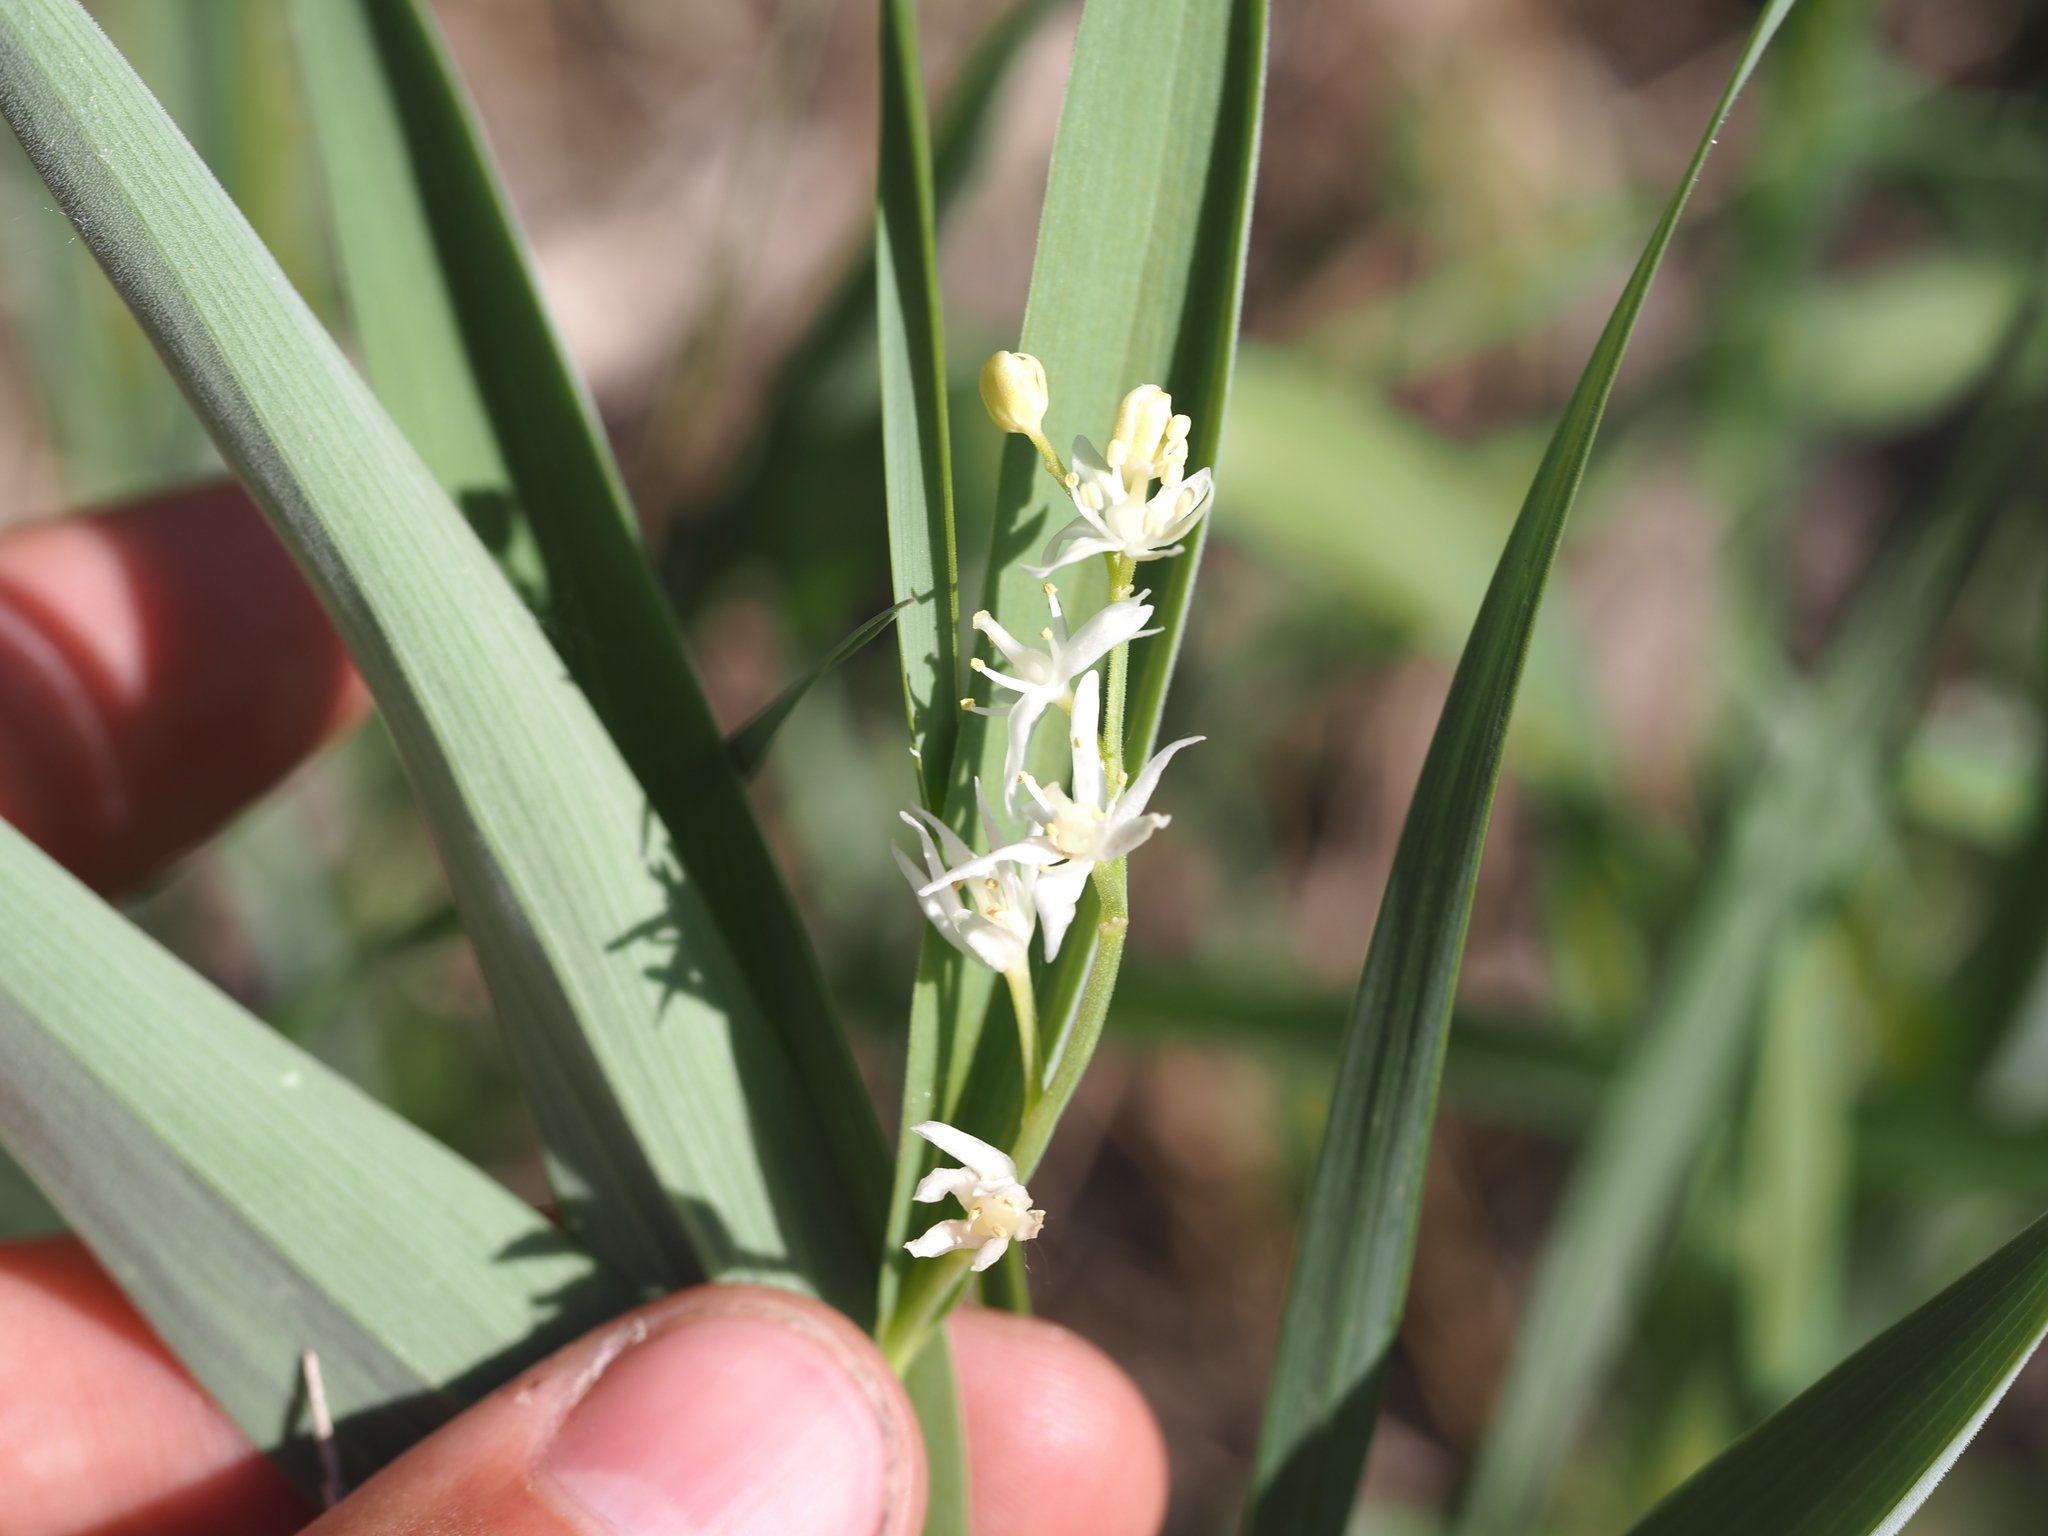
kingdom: Plantae
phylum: Tracheophyta
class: Liliopsida
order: Asparagales
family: Asparagaceae
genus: Maianthemum
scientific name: Maianthemum stellatum
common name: Little false solomon's seal
